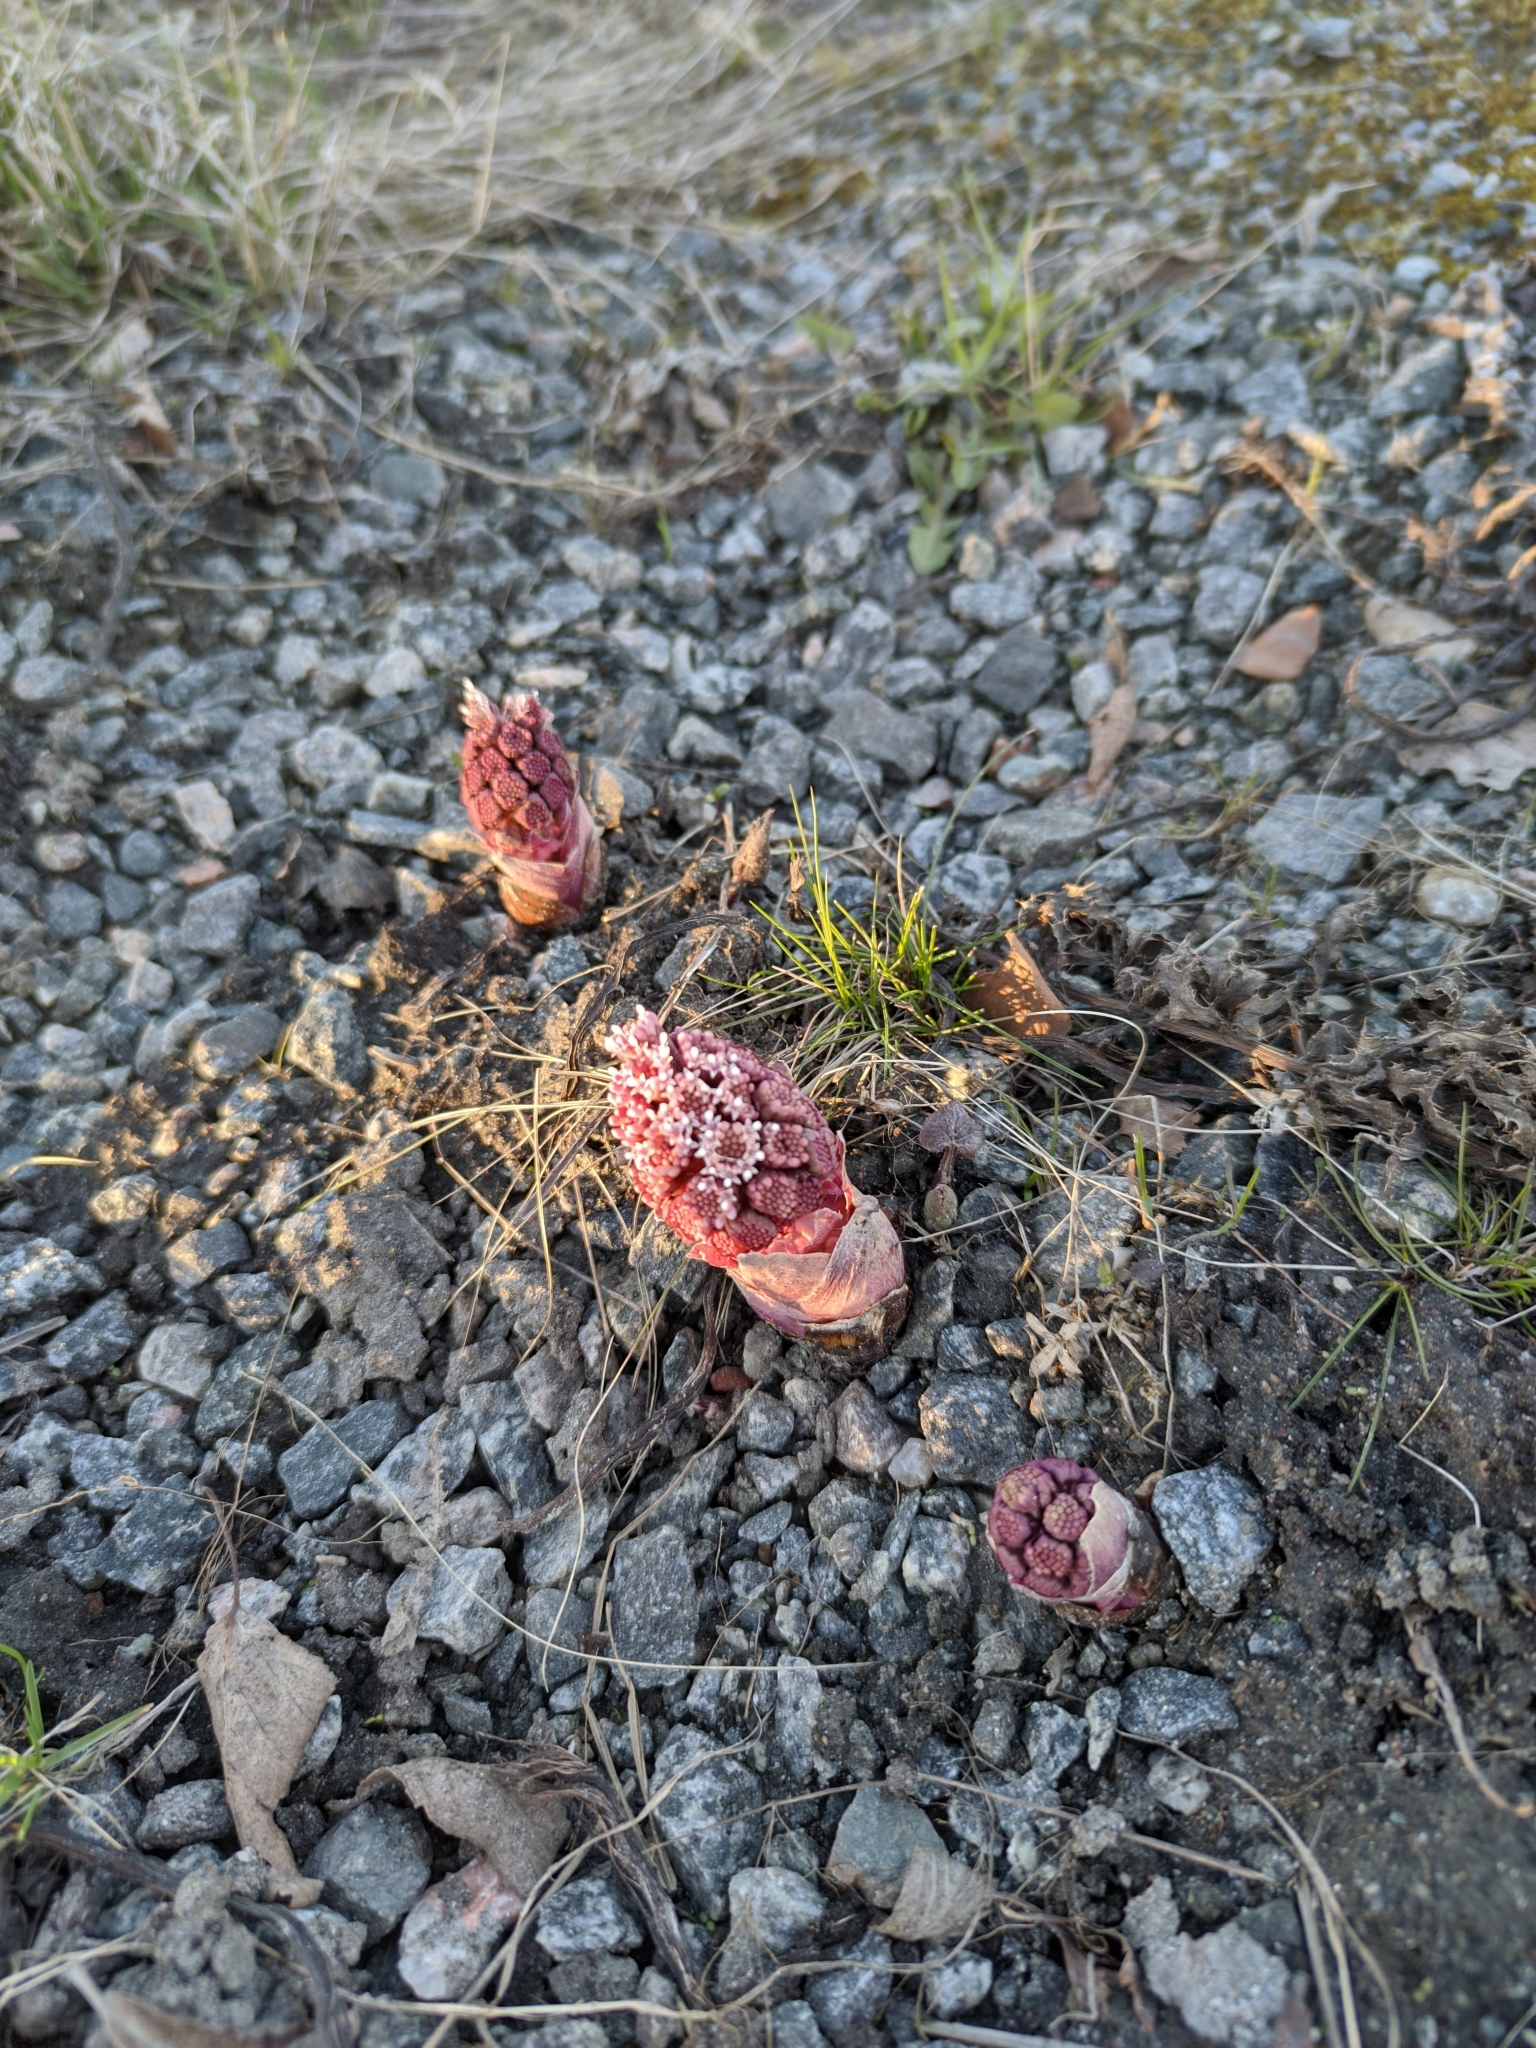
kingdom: Plantae
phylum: Tracheophyta
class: Magnoliopsida
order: Asterales
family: Asteraceae
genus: Petasites
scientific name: Petasites hybridus
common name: Butterbur
